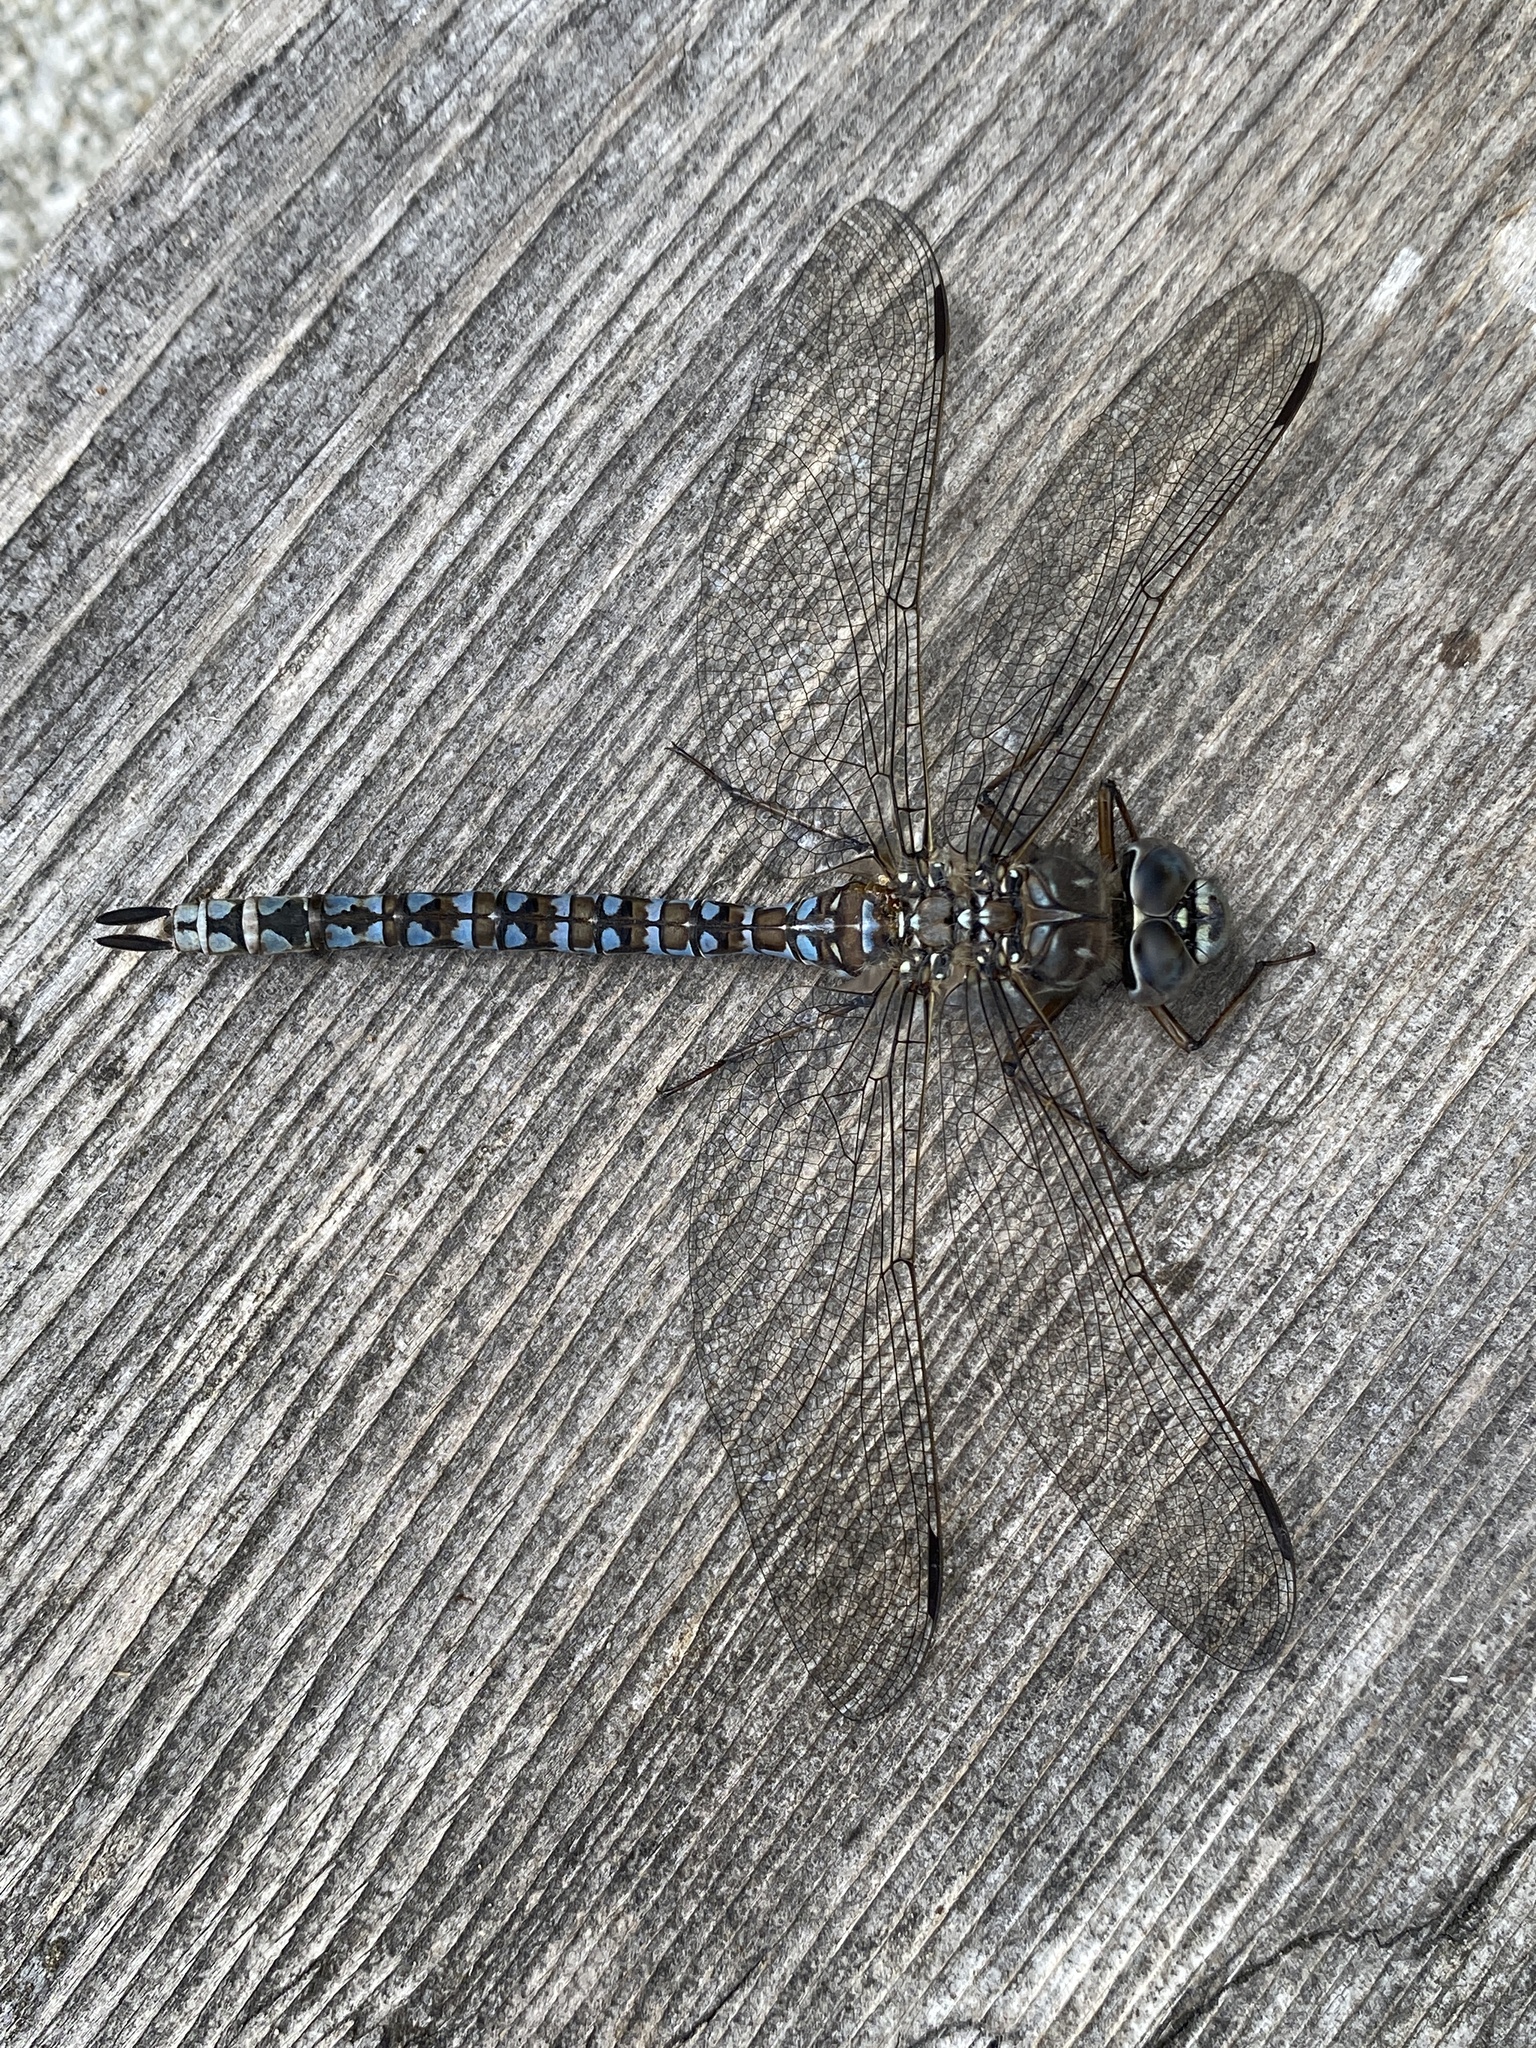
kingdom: Animalia
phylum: Arthropoda
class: Insecta
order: Odonata
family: Aeshnidae
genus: Aeshna
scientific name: Aeshna septentrionalis
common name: Azure darner
